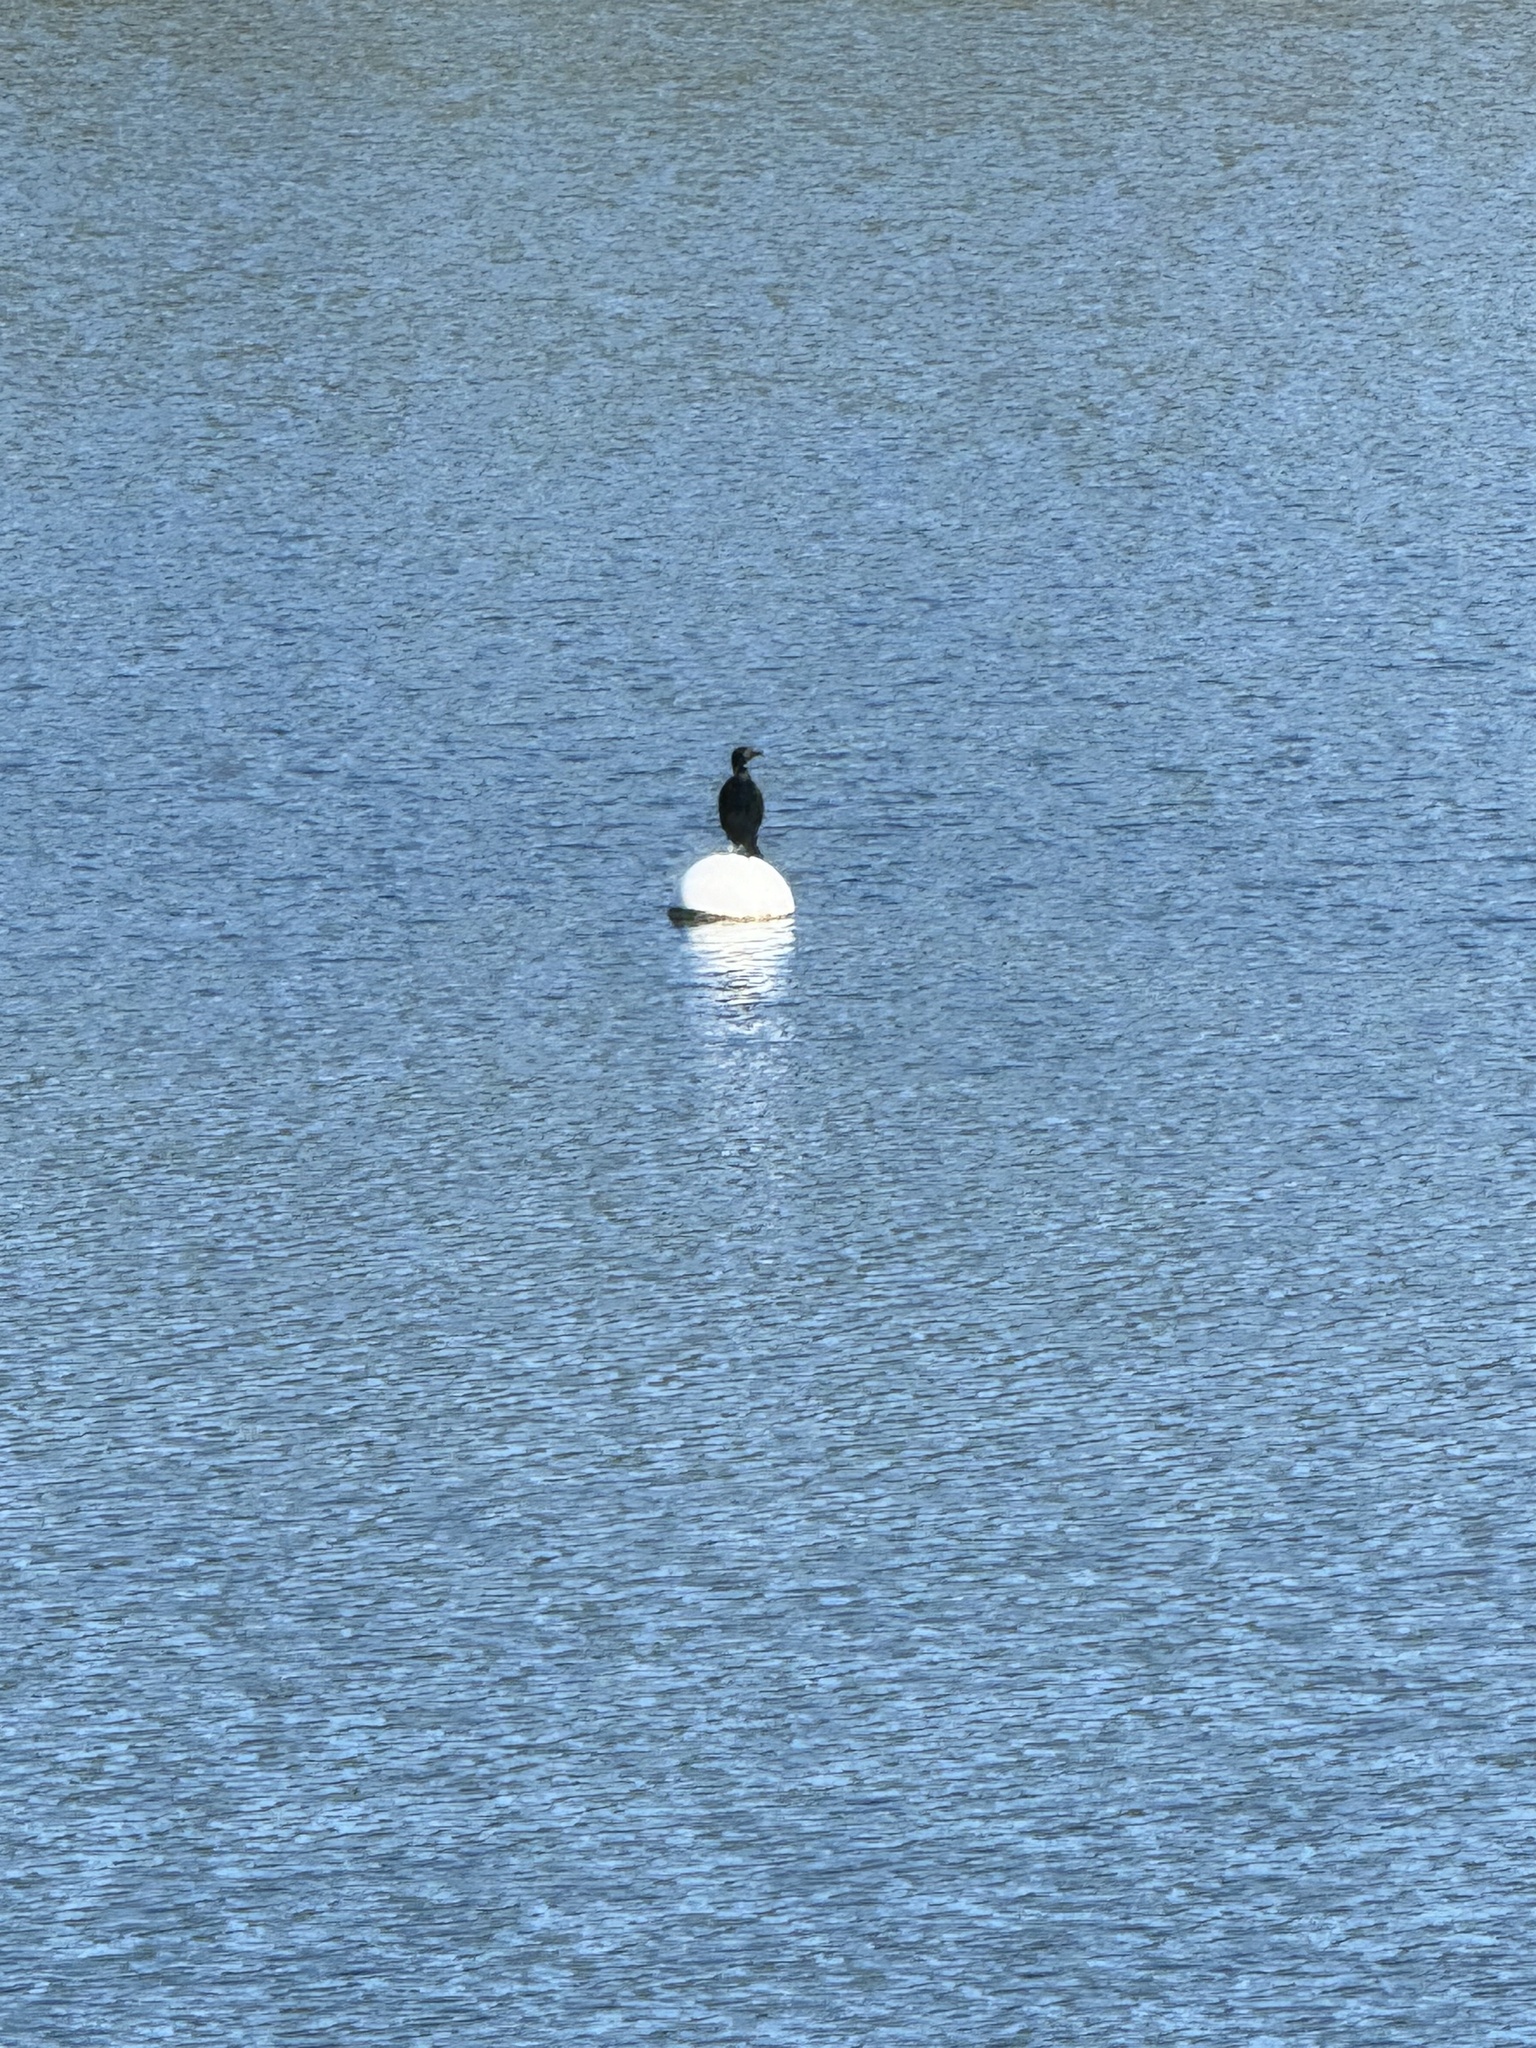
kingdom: Animalia
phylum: Chordata
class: Aves
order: Suliformes
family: Phalacrocoracidae
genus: Phalacrocorax
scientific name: Phalacrocorax auritus
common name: Double-crested cormorant
